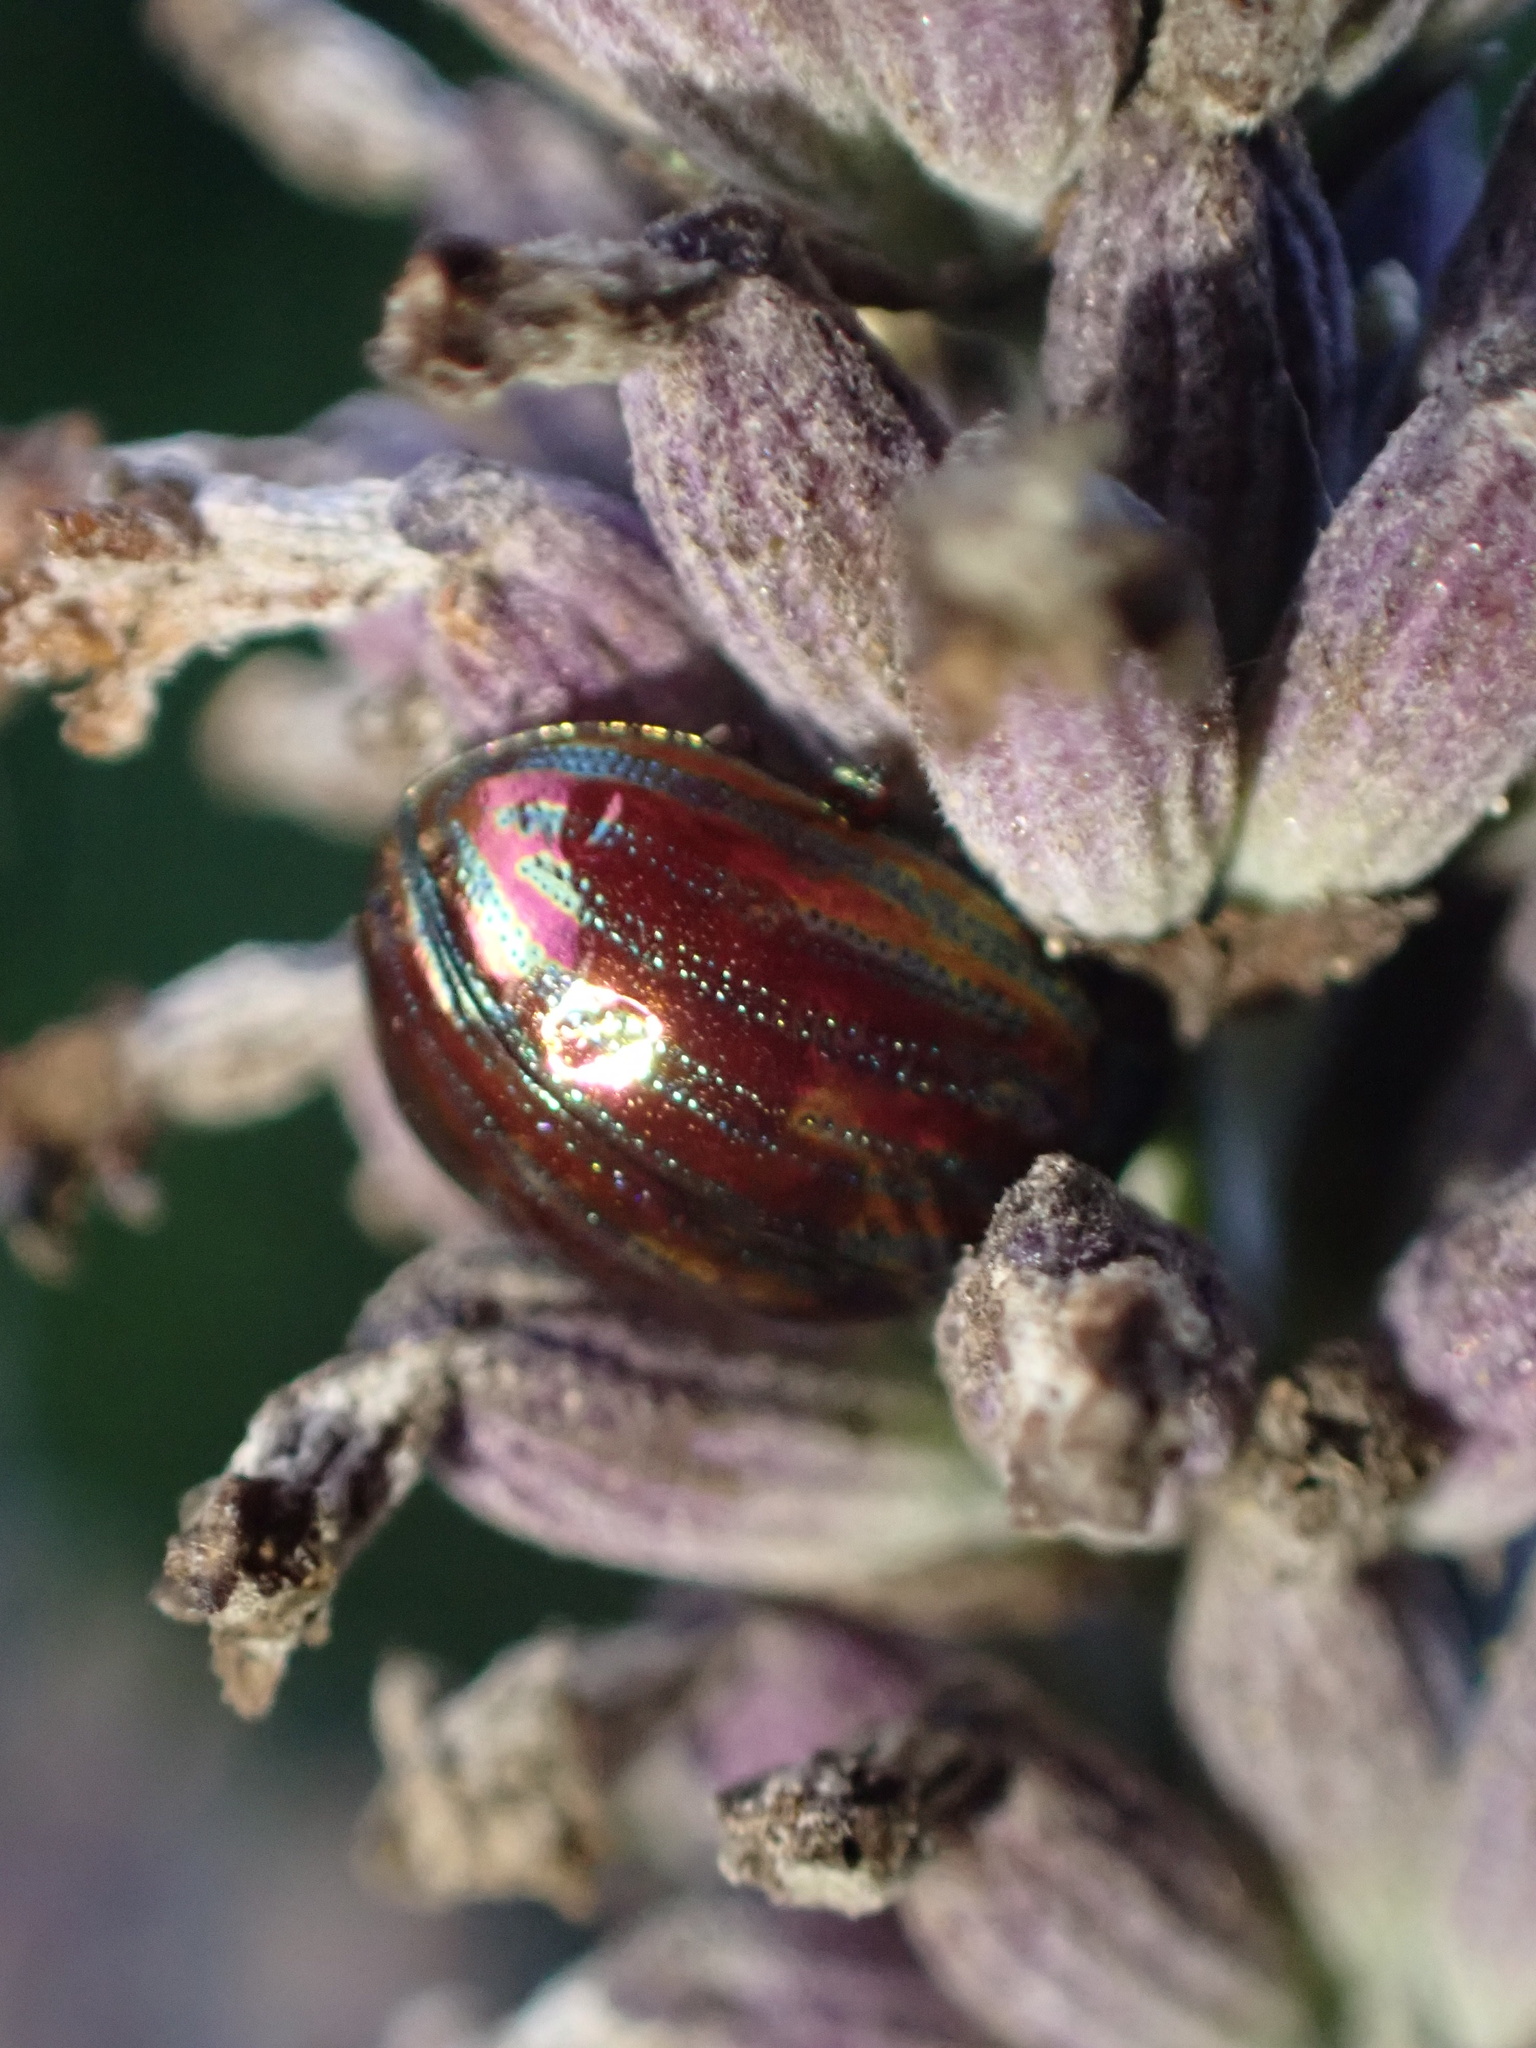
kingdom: Animalia
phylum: Arthropoda
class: Insecta
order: Coleoptera
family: Chrysomelidae
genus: Chrysolina
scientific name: Chrysolina americana
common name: Rosemary beetle
